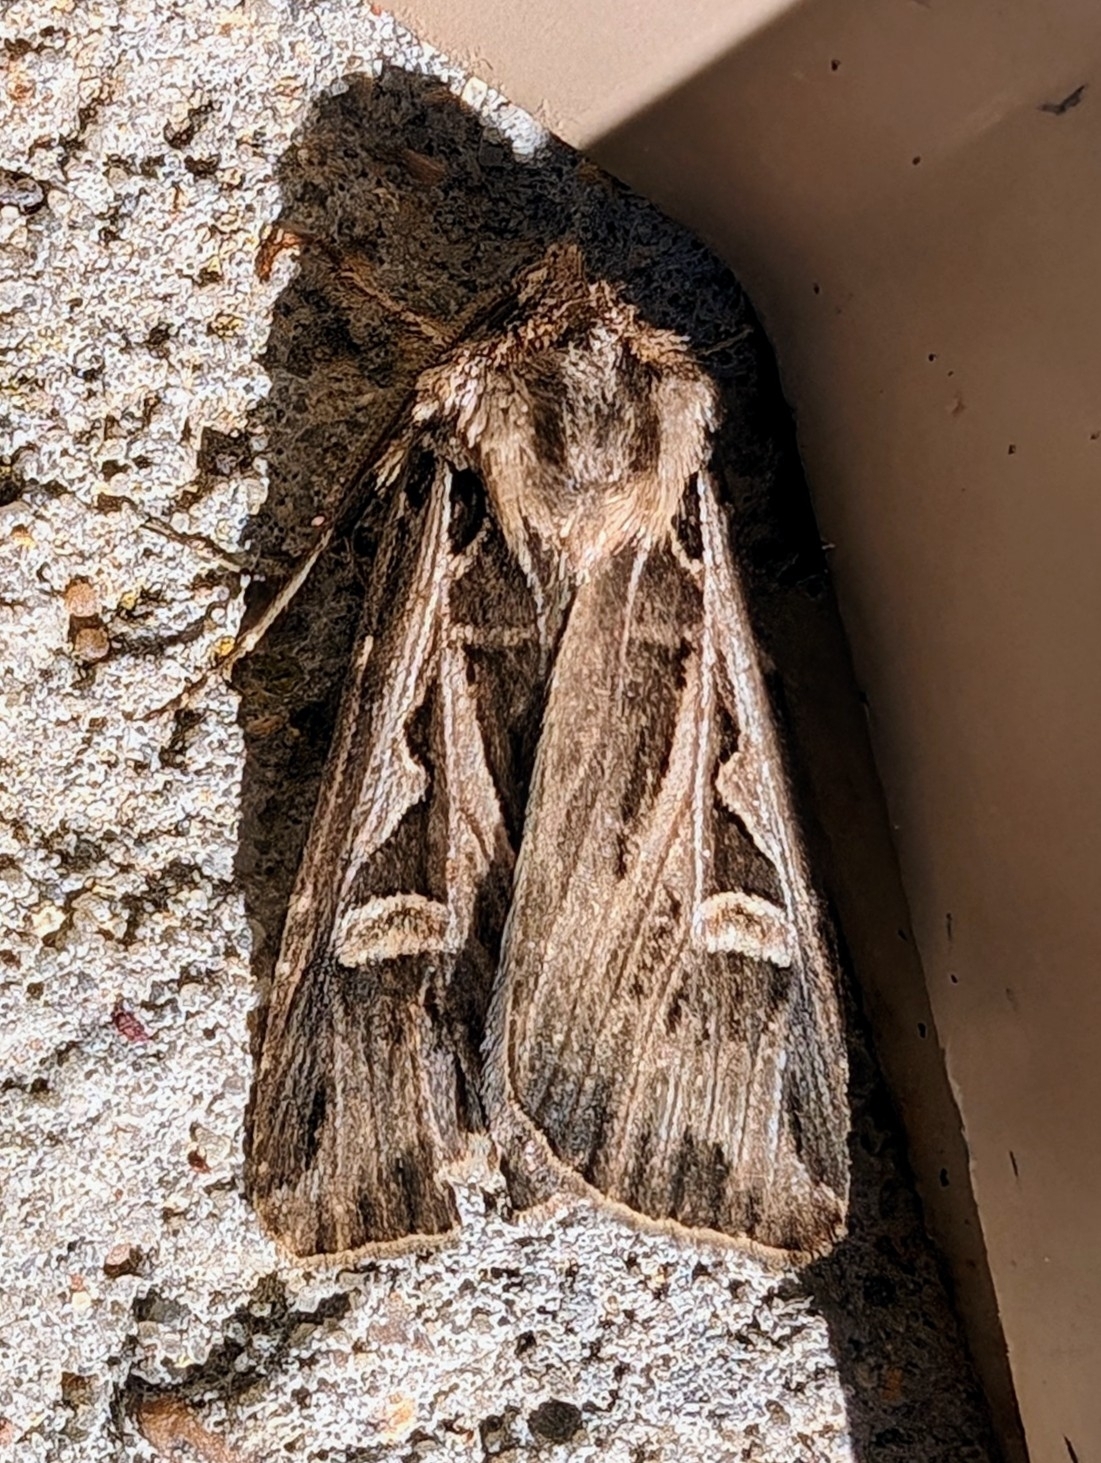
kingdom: Animalia
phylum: Arthropoda
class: Insecta
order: Lepidoptera
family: Noctuidae
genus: Feltia
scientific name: Feltia jaculifera
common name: Dingy cutworm moth
